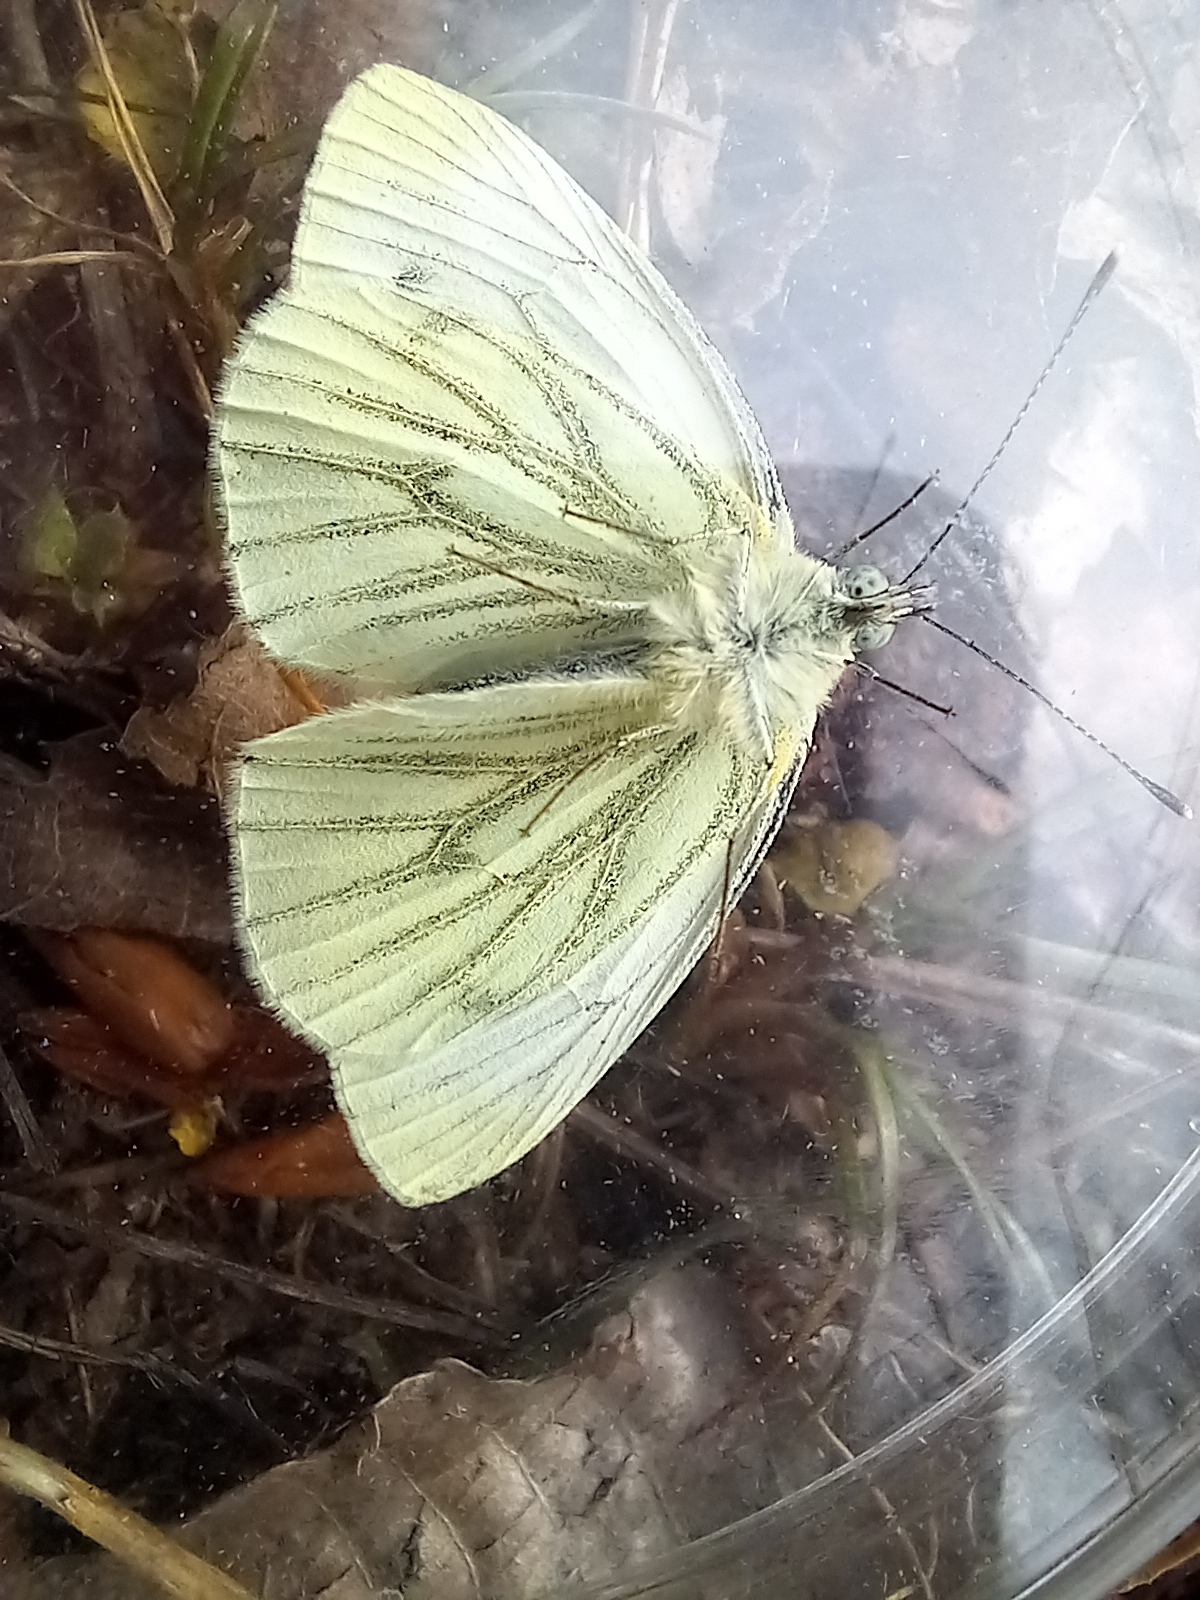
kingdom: Animalia
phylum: Arthropoda
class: Insecta
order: Lepidoptera
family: Pieridae
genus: Pieris
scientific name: Pieris napi
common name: Green-veined white
